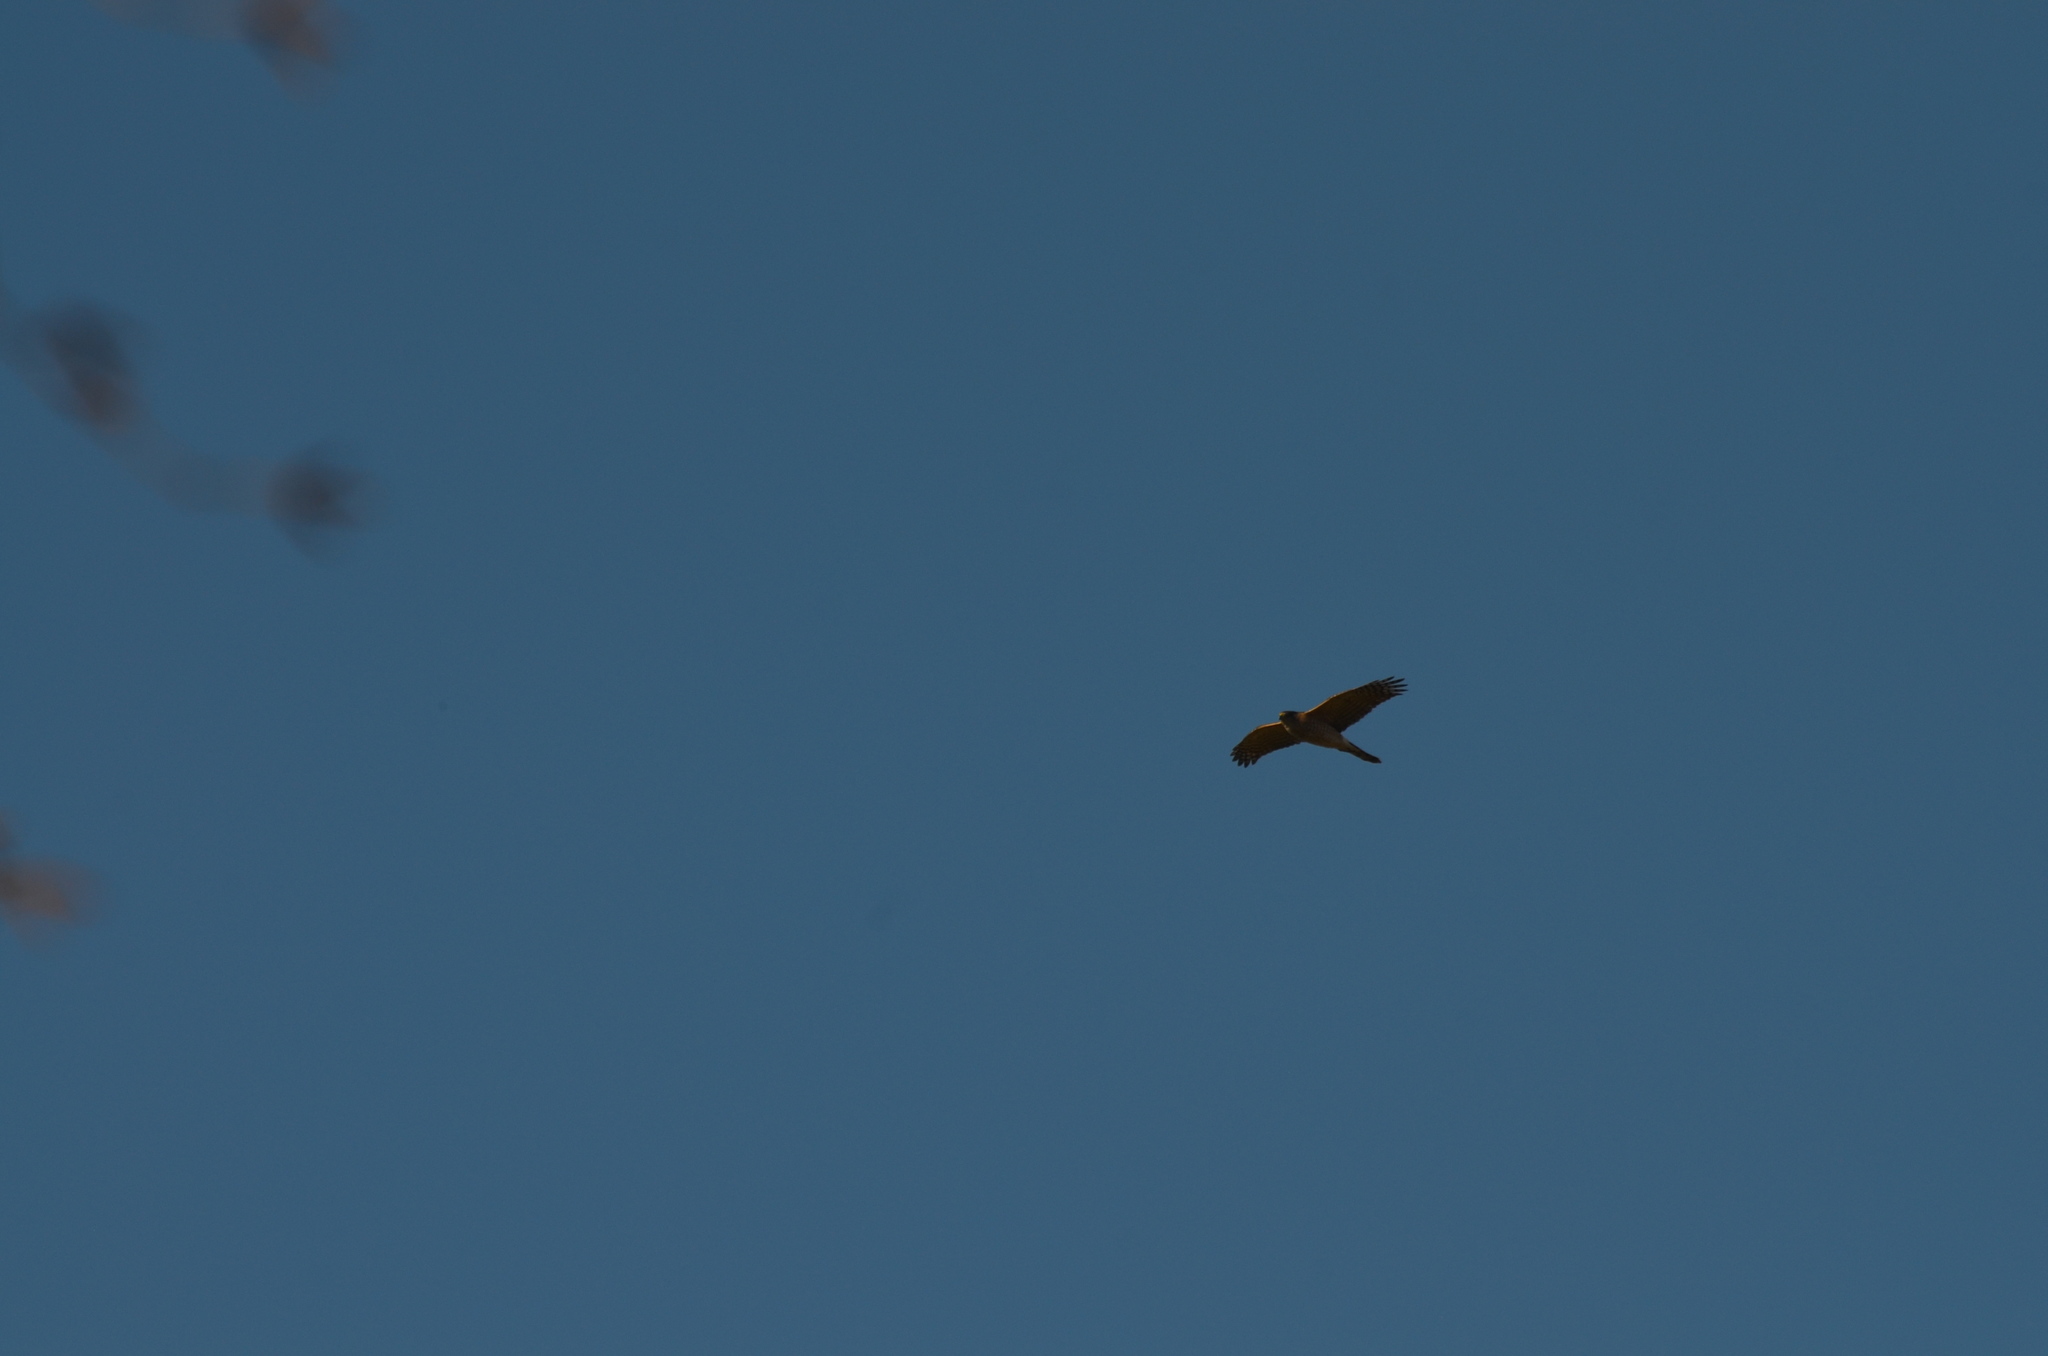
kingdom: Animalia
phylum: Chordata
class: Aves
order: Accipitriformes
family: Accipitridae
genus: Accipiter
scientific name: Accipiter cooperii
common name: Cooper's hawk
